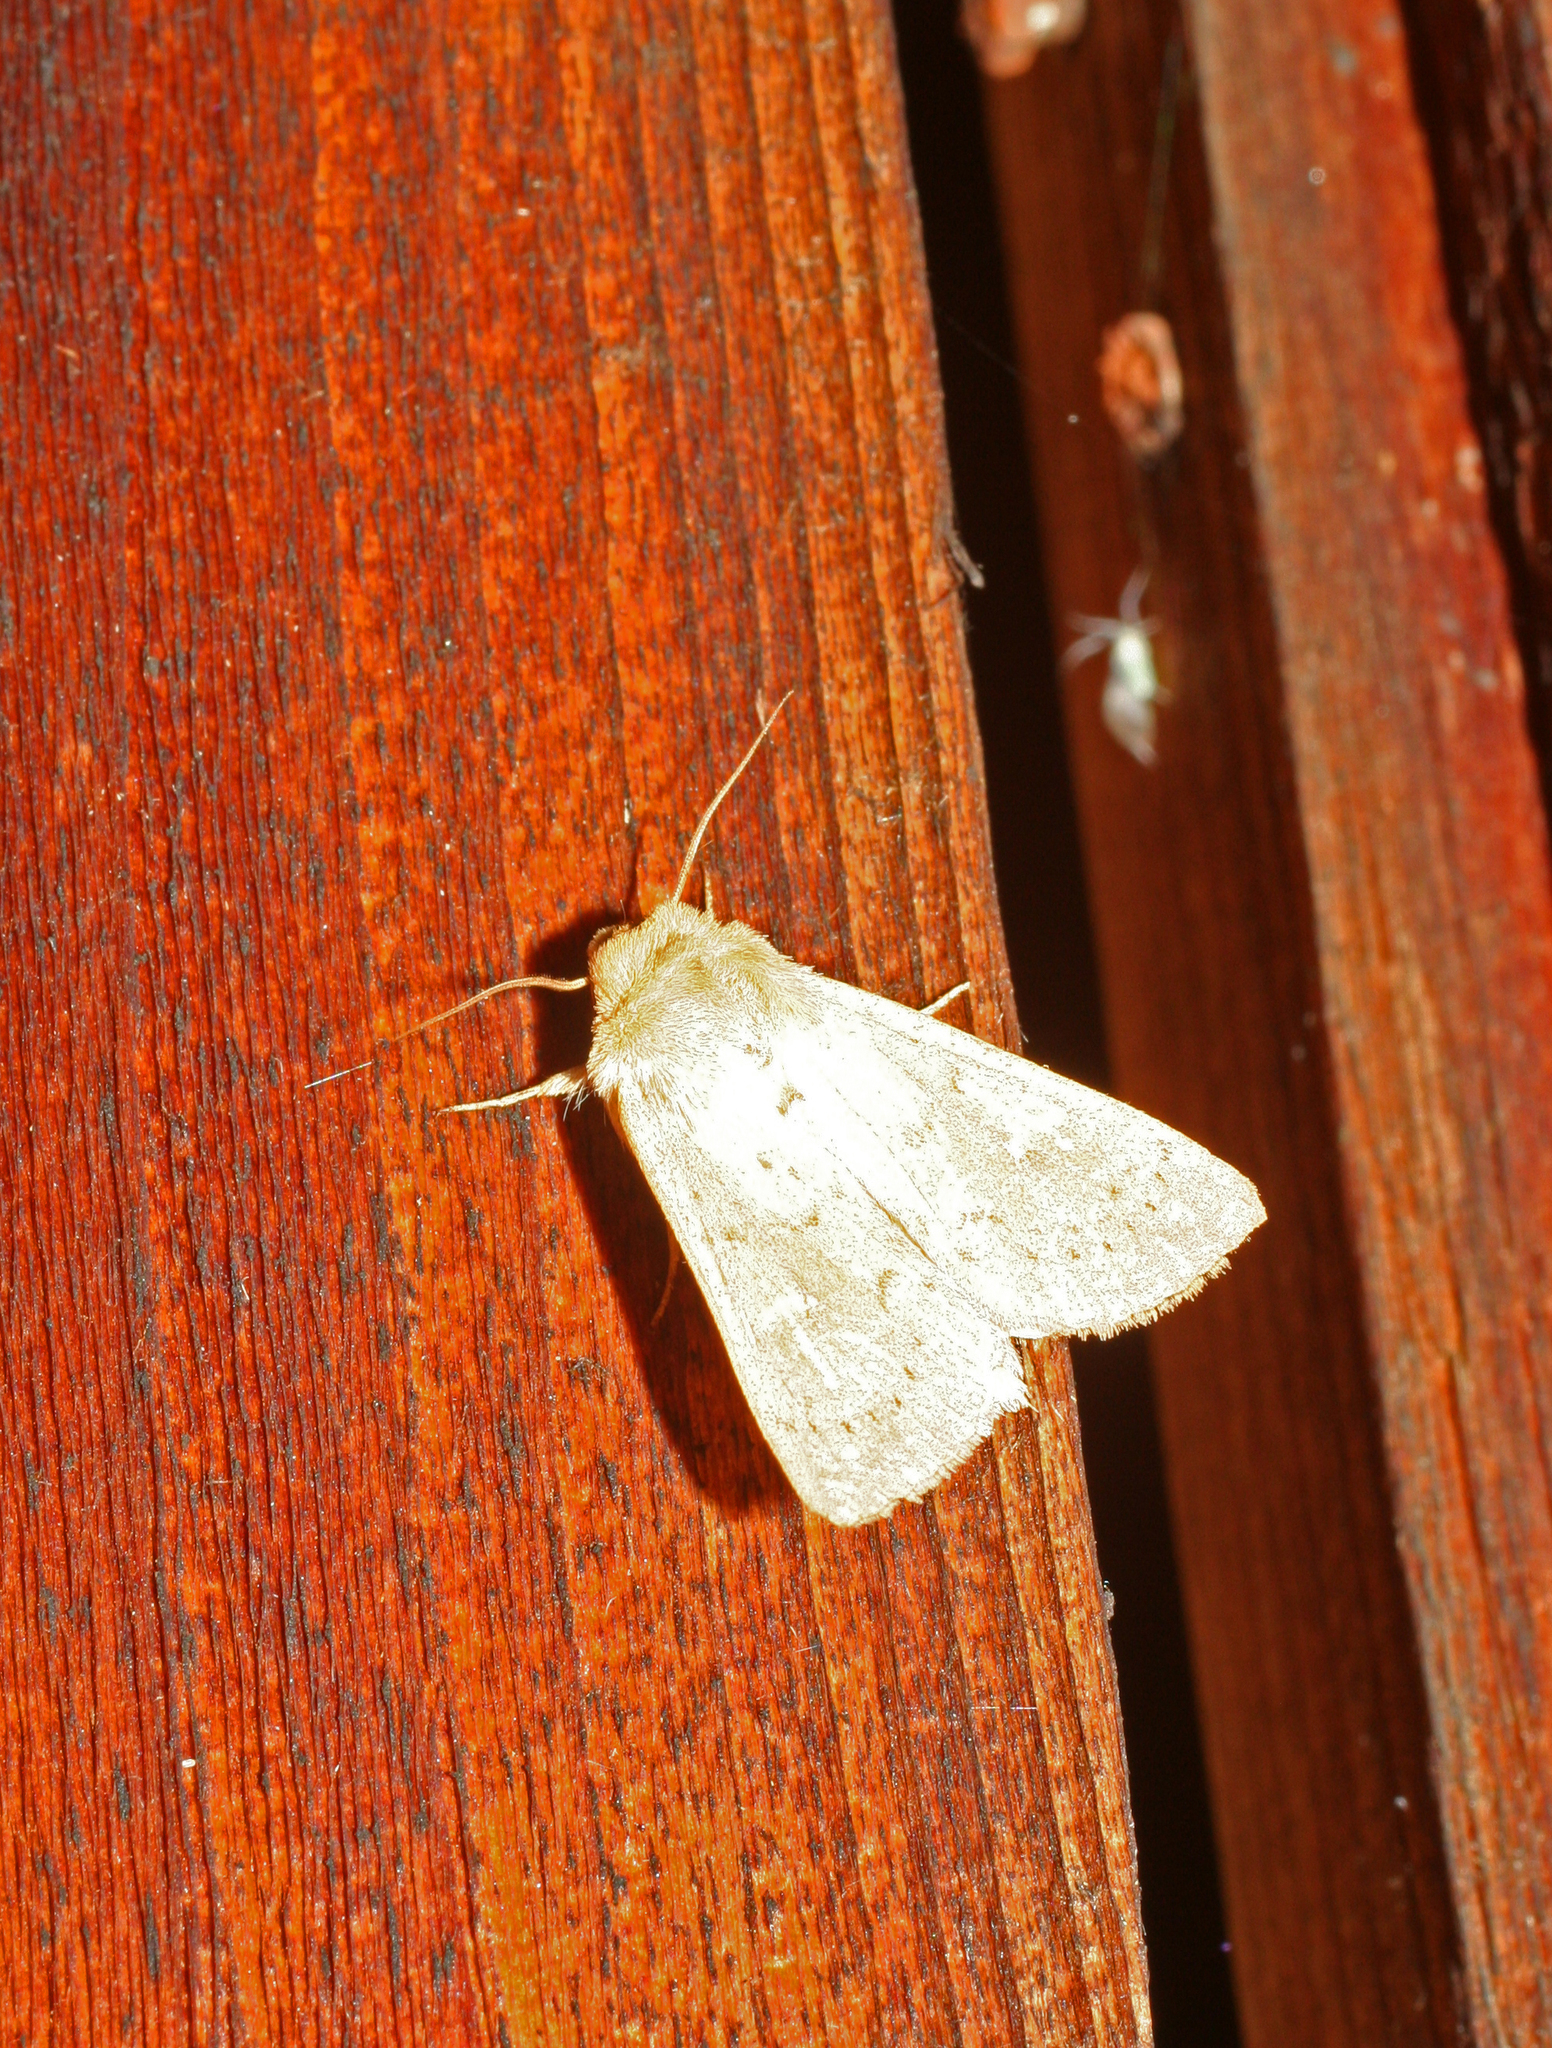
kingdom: Animalia
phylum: Arthropoda
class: Insecta
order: Lepidoptera
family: Noctuidae
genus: Mythimna
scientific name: Mythimna ferrago
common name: Clay
